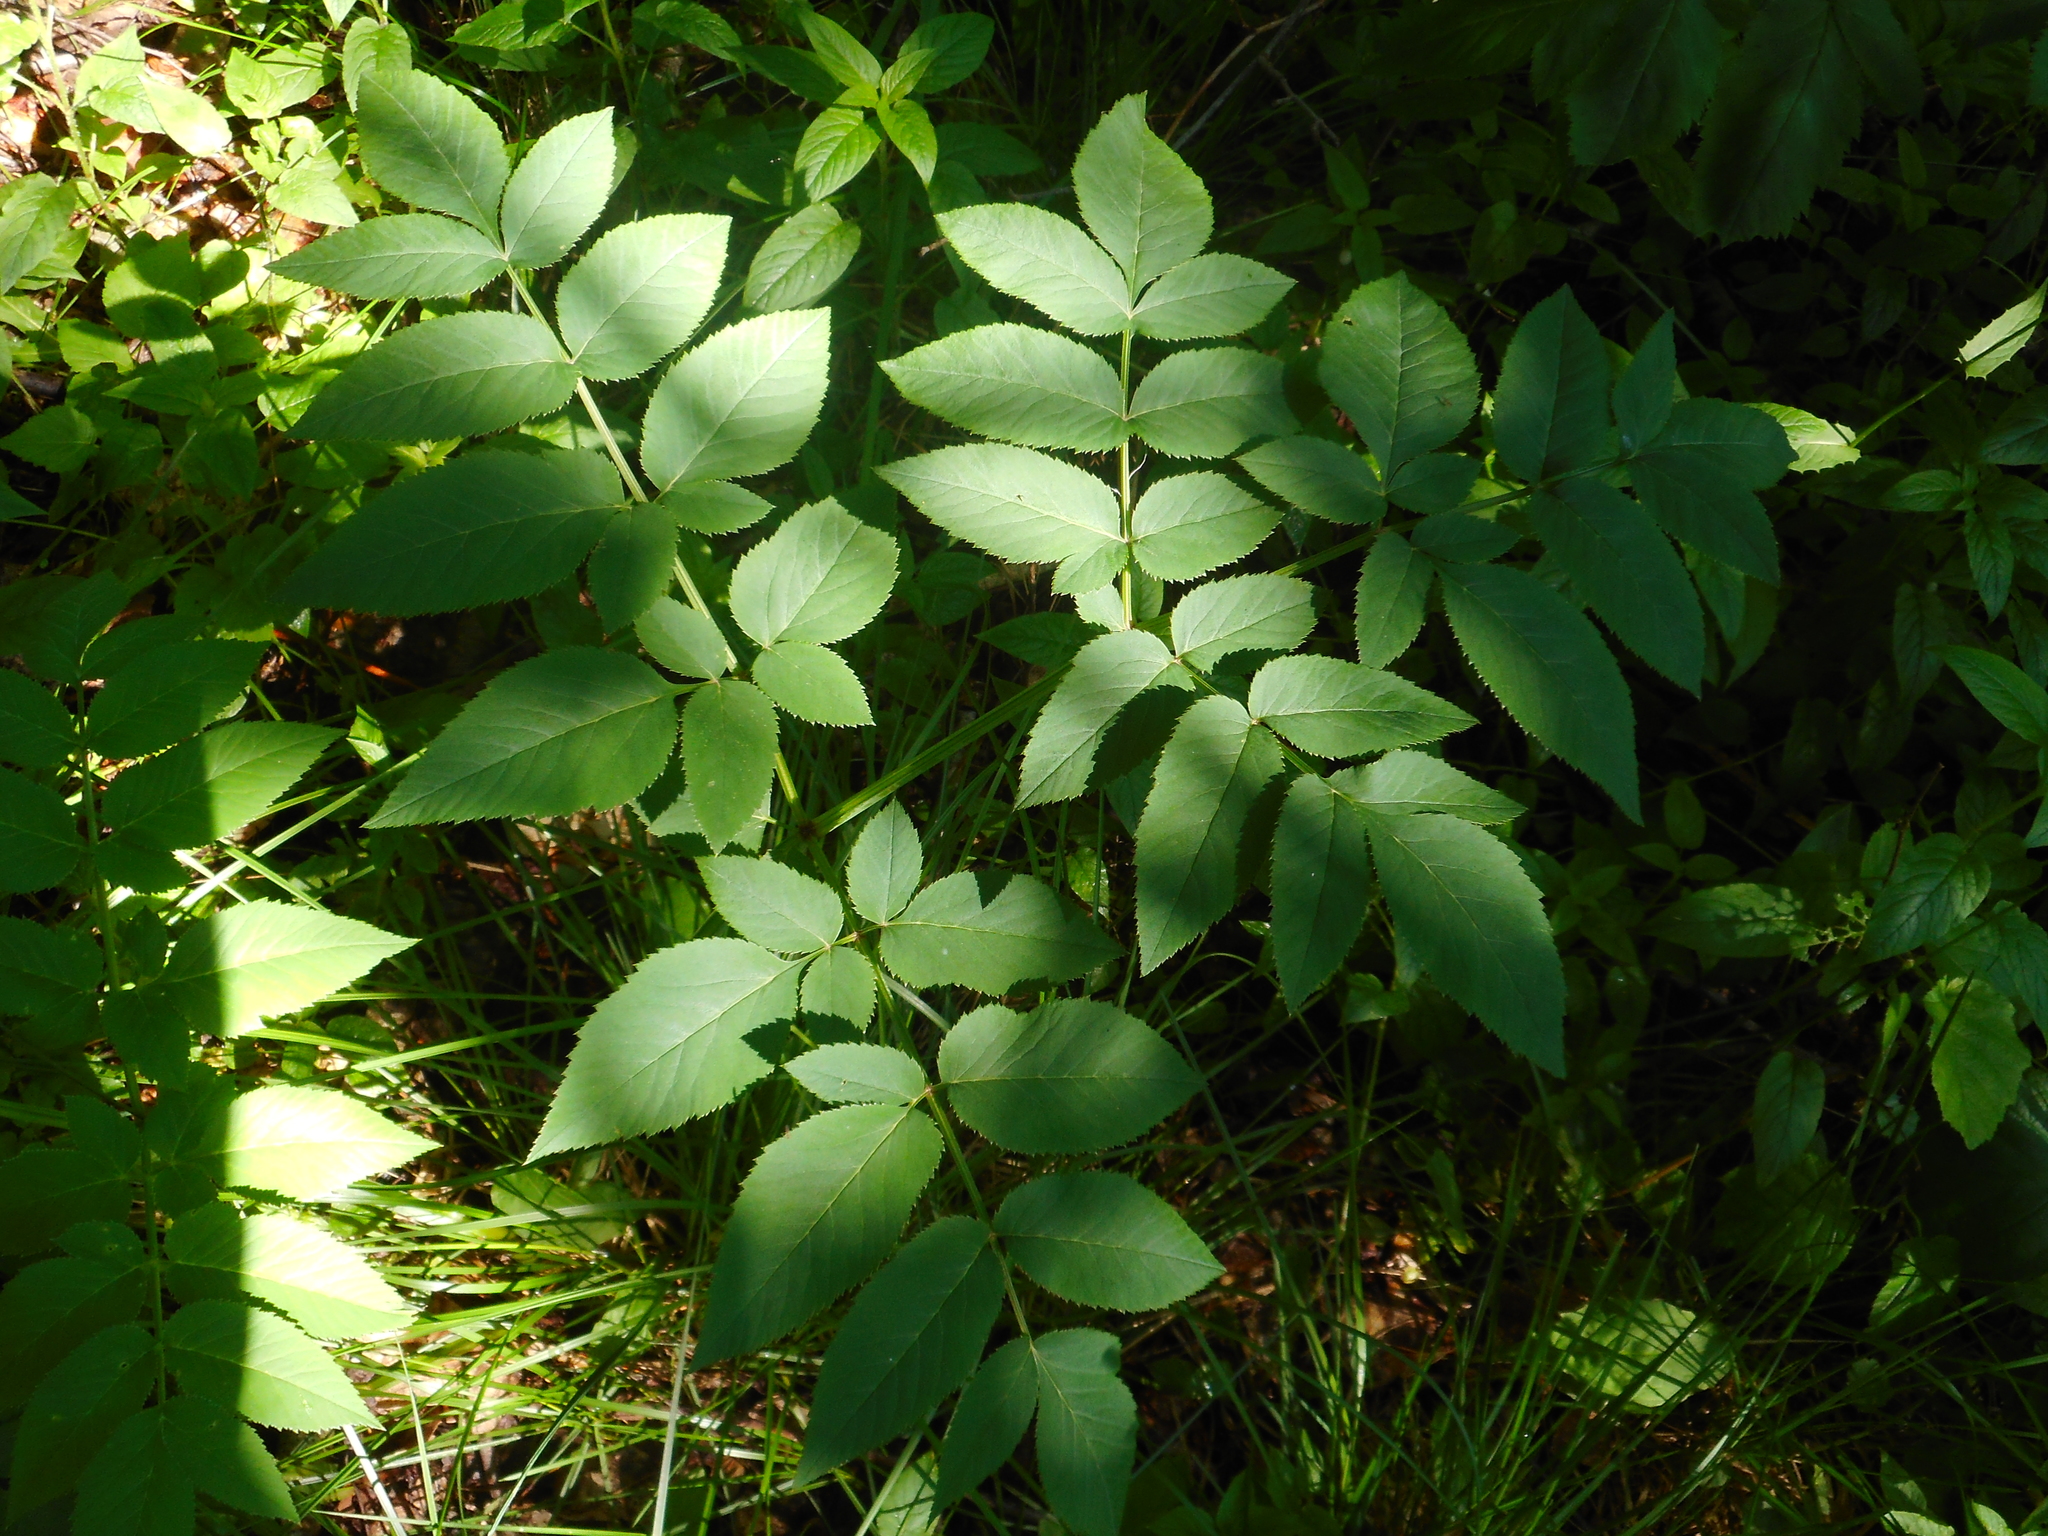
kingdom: Plantae
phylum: Tracheophyta
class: Magnoliopsida
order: Apiales
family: Apiaceae
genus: Angelica
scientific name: Angelica sylvestris
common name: Wild angelica
